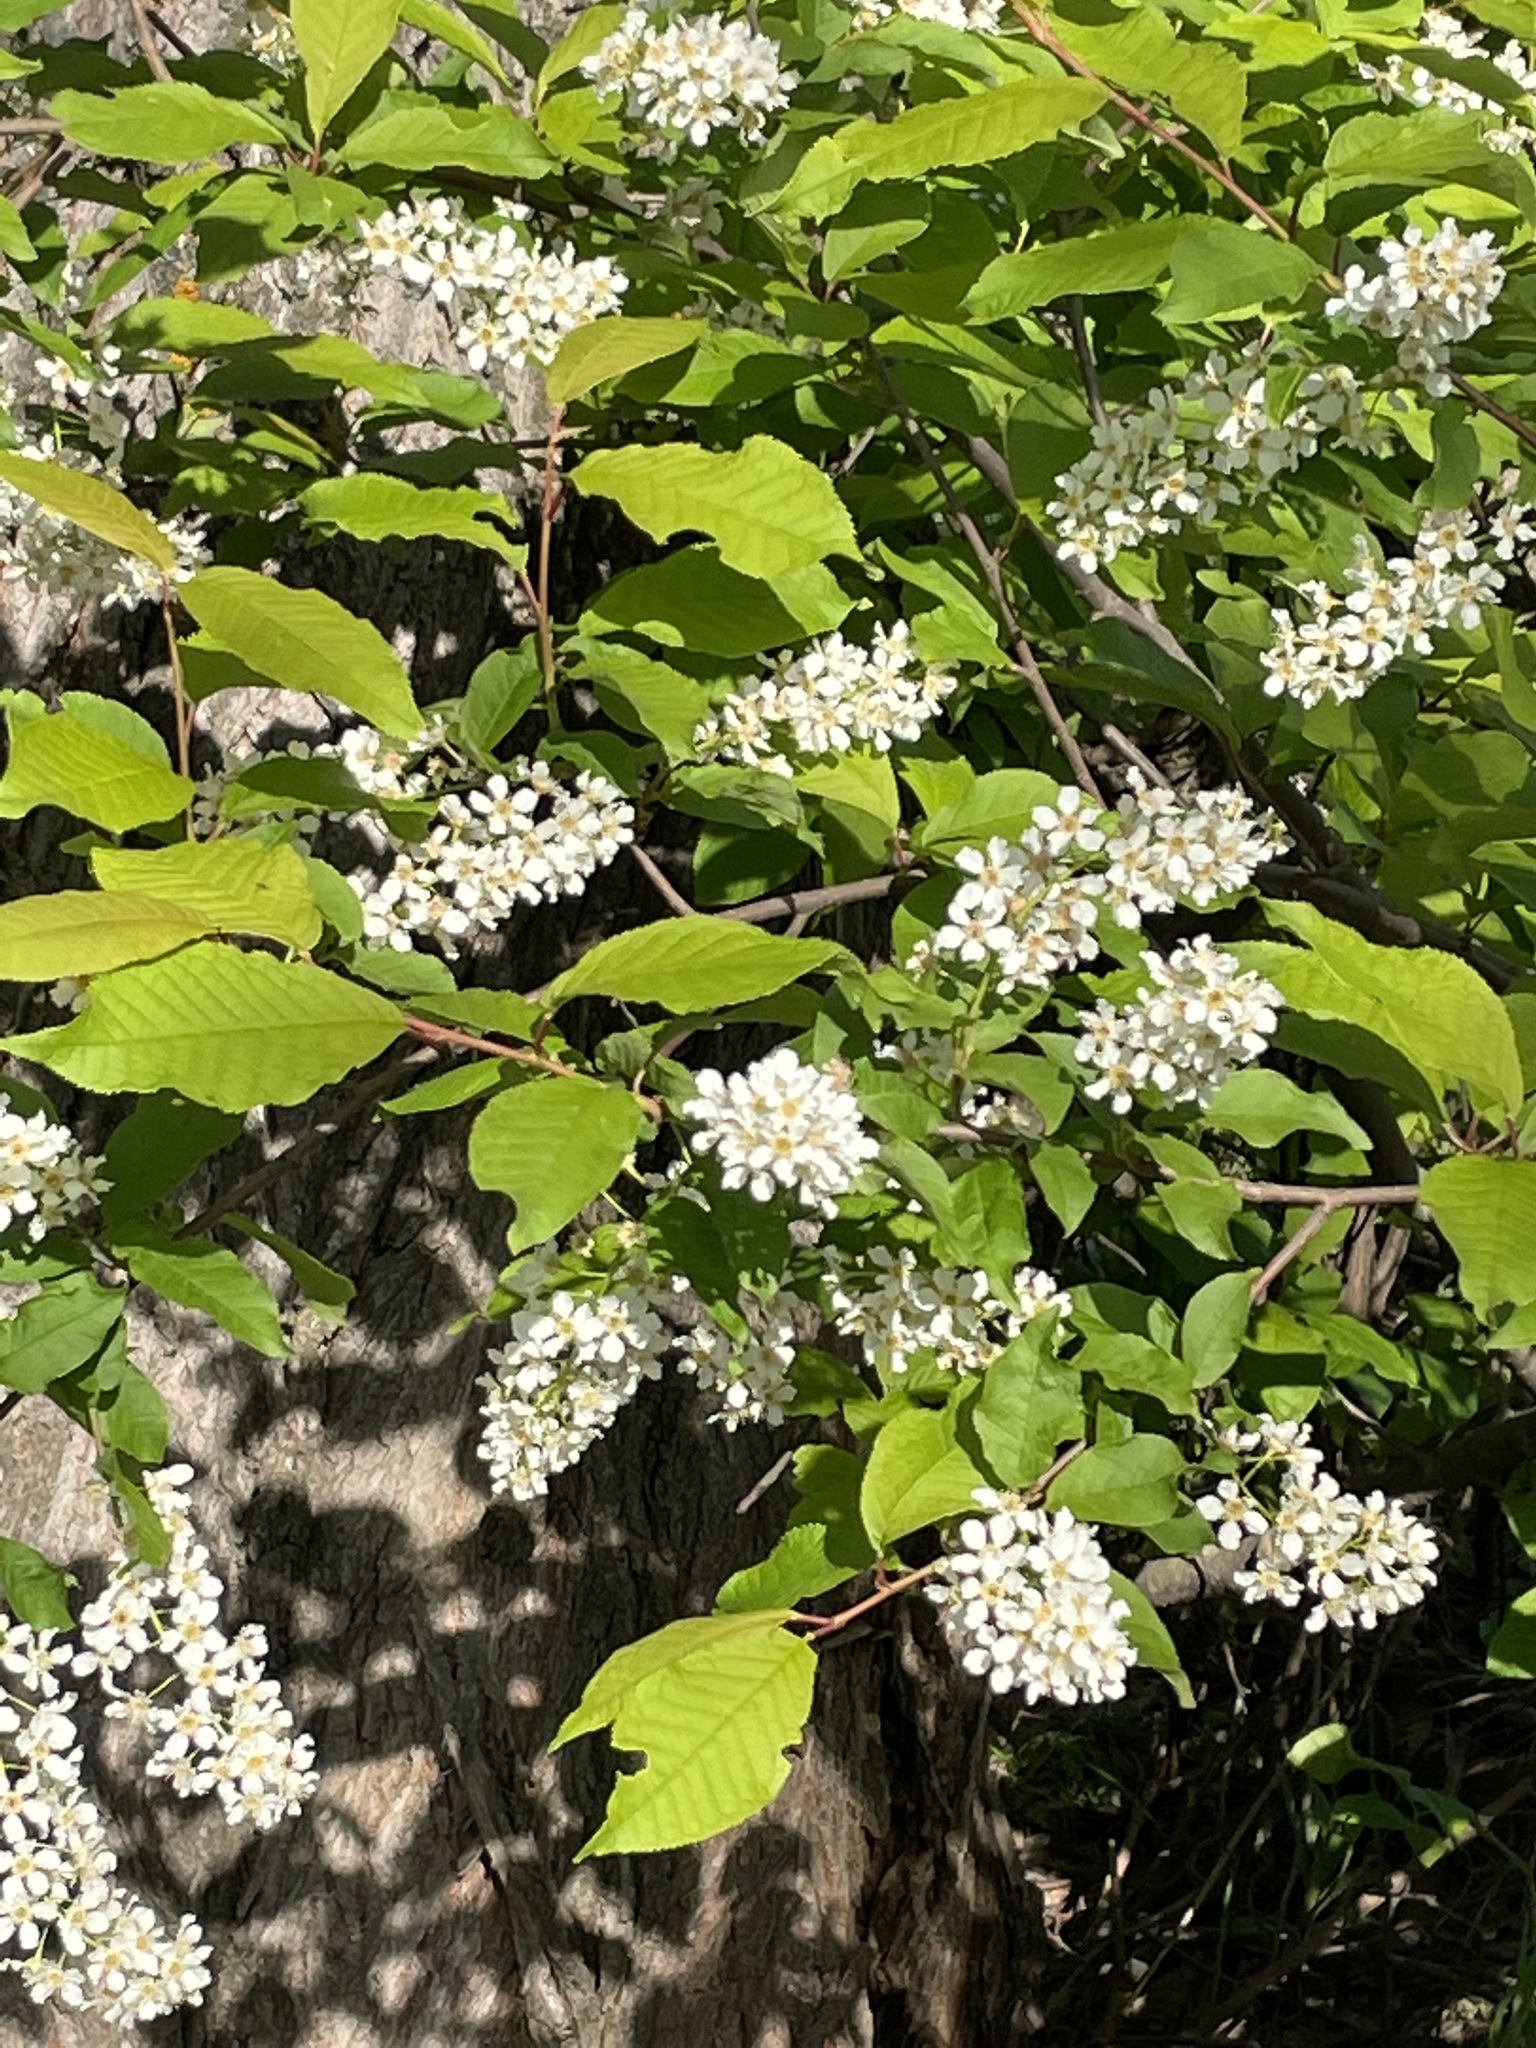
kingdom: Plantae
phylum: Tracheophyta
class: Magnoliopsida
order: Rosales
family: Rosaceae
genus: Prunus
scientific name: Prunus padus
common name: Bird cherry
